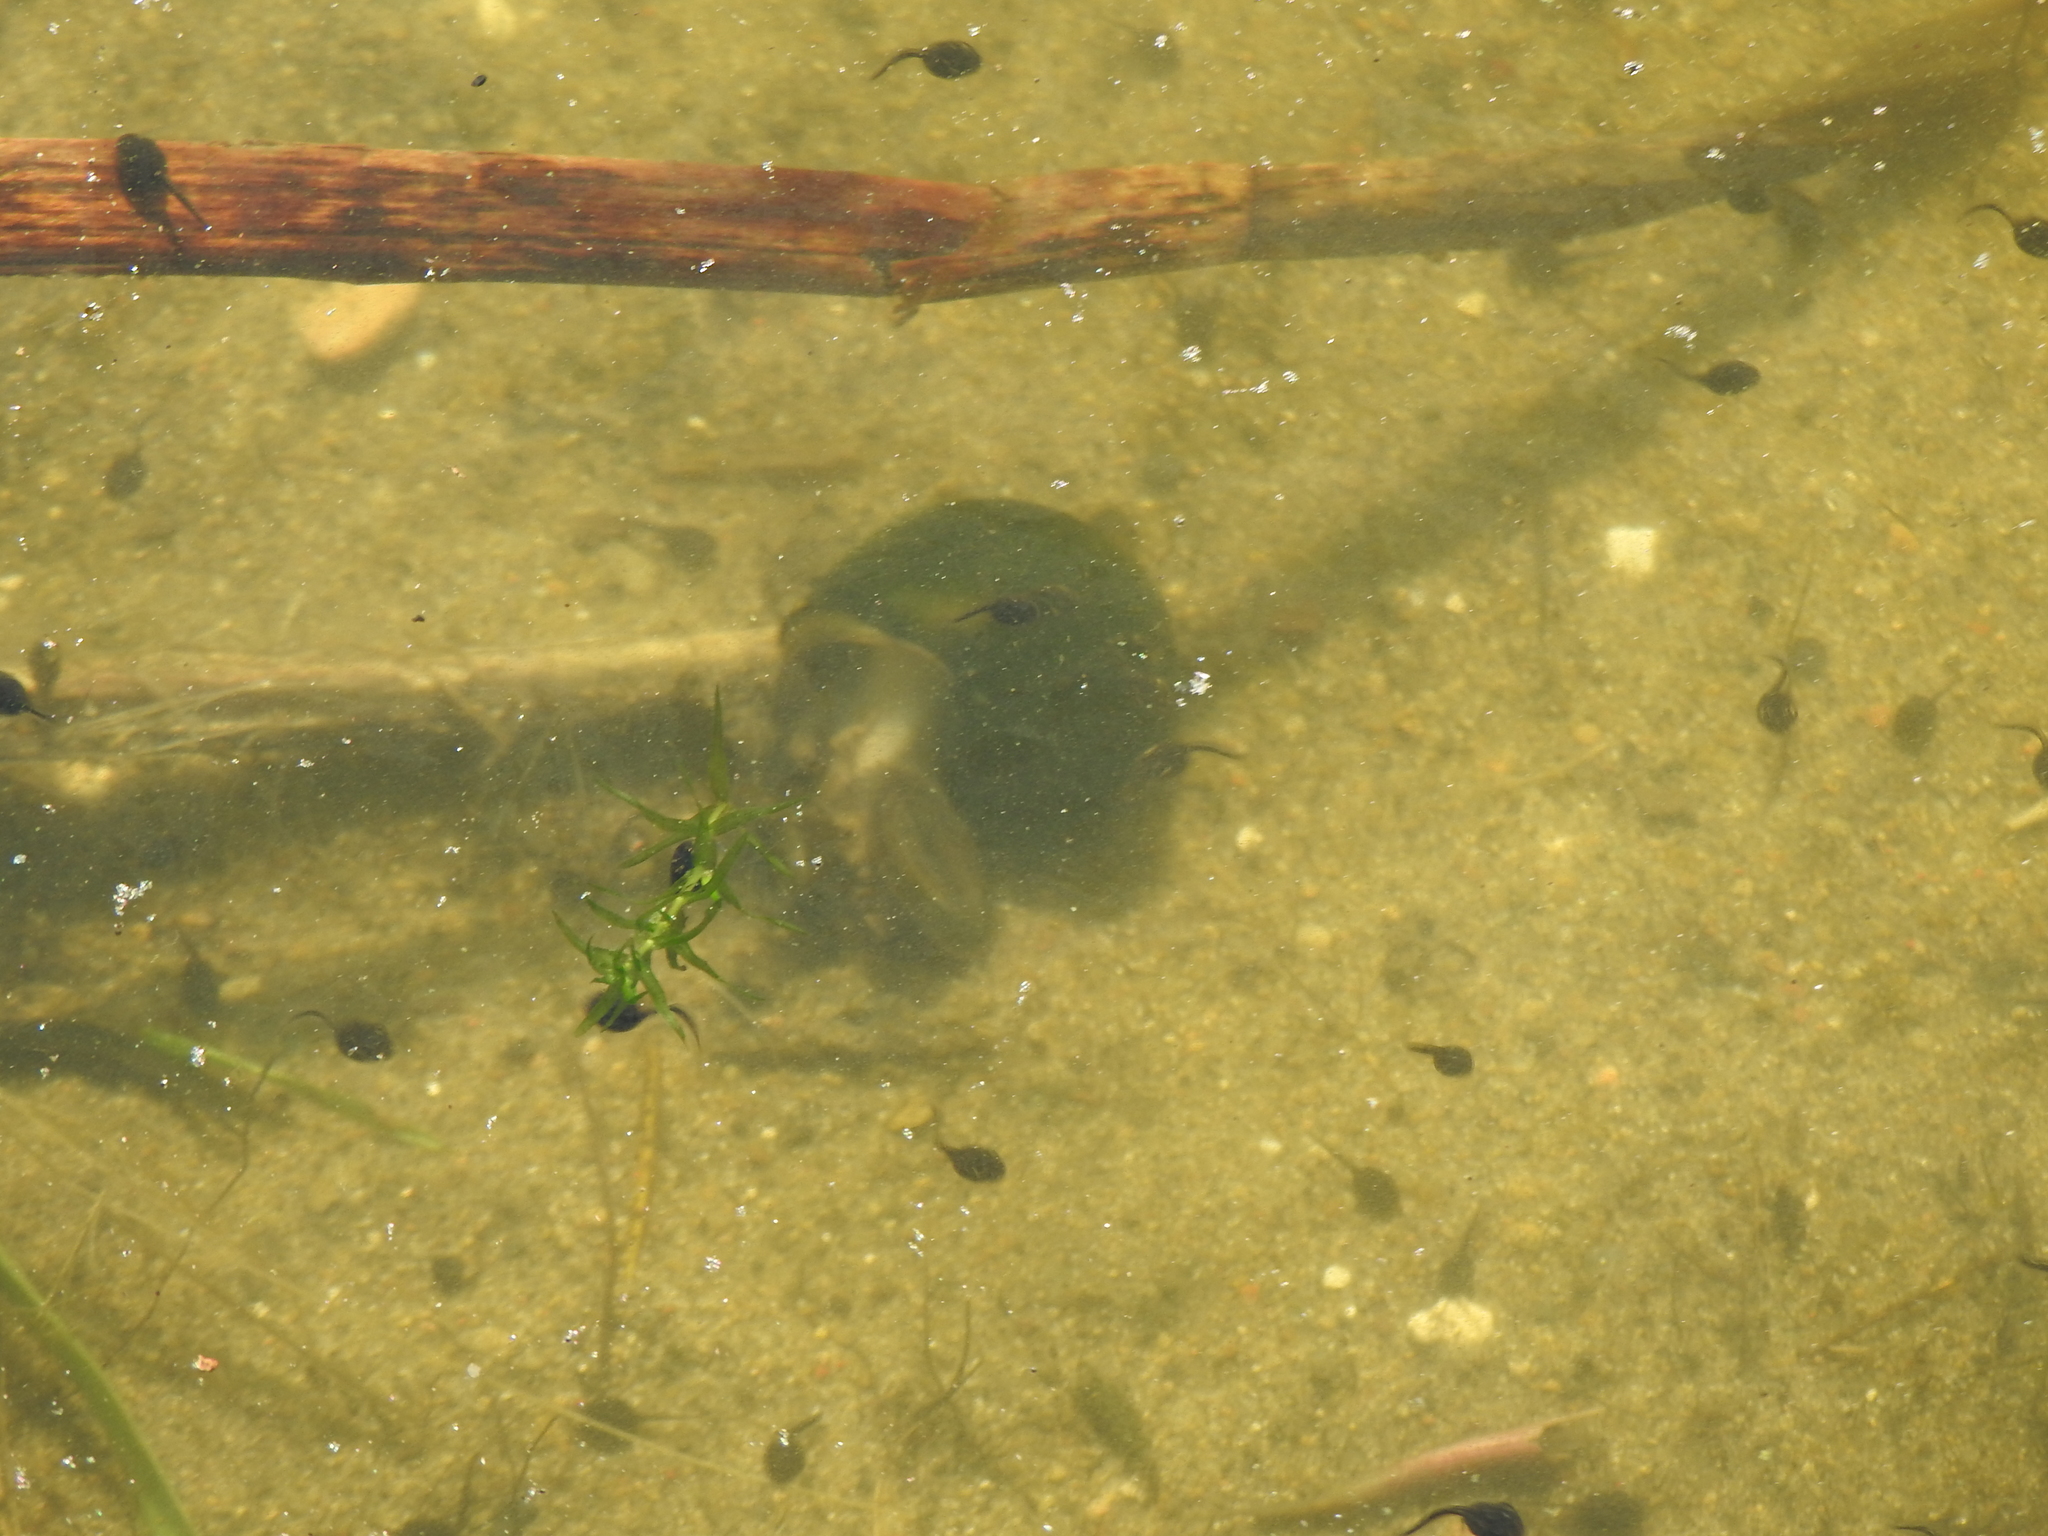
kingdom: Animalia
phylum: Mollusca
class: Gastropoda
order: Architaenioglossa
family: Viviparidae
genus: Cipangopaludina
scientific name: Cipangopaludina chinensis
